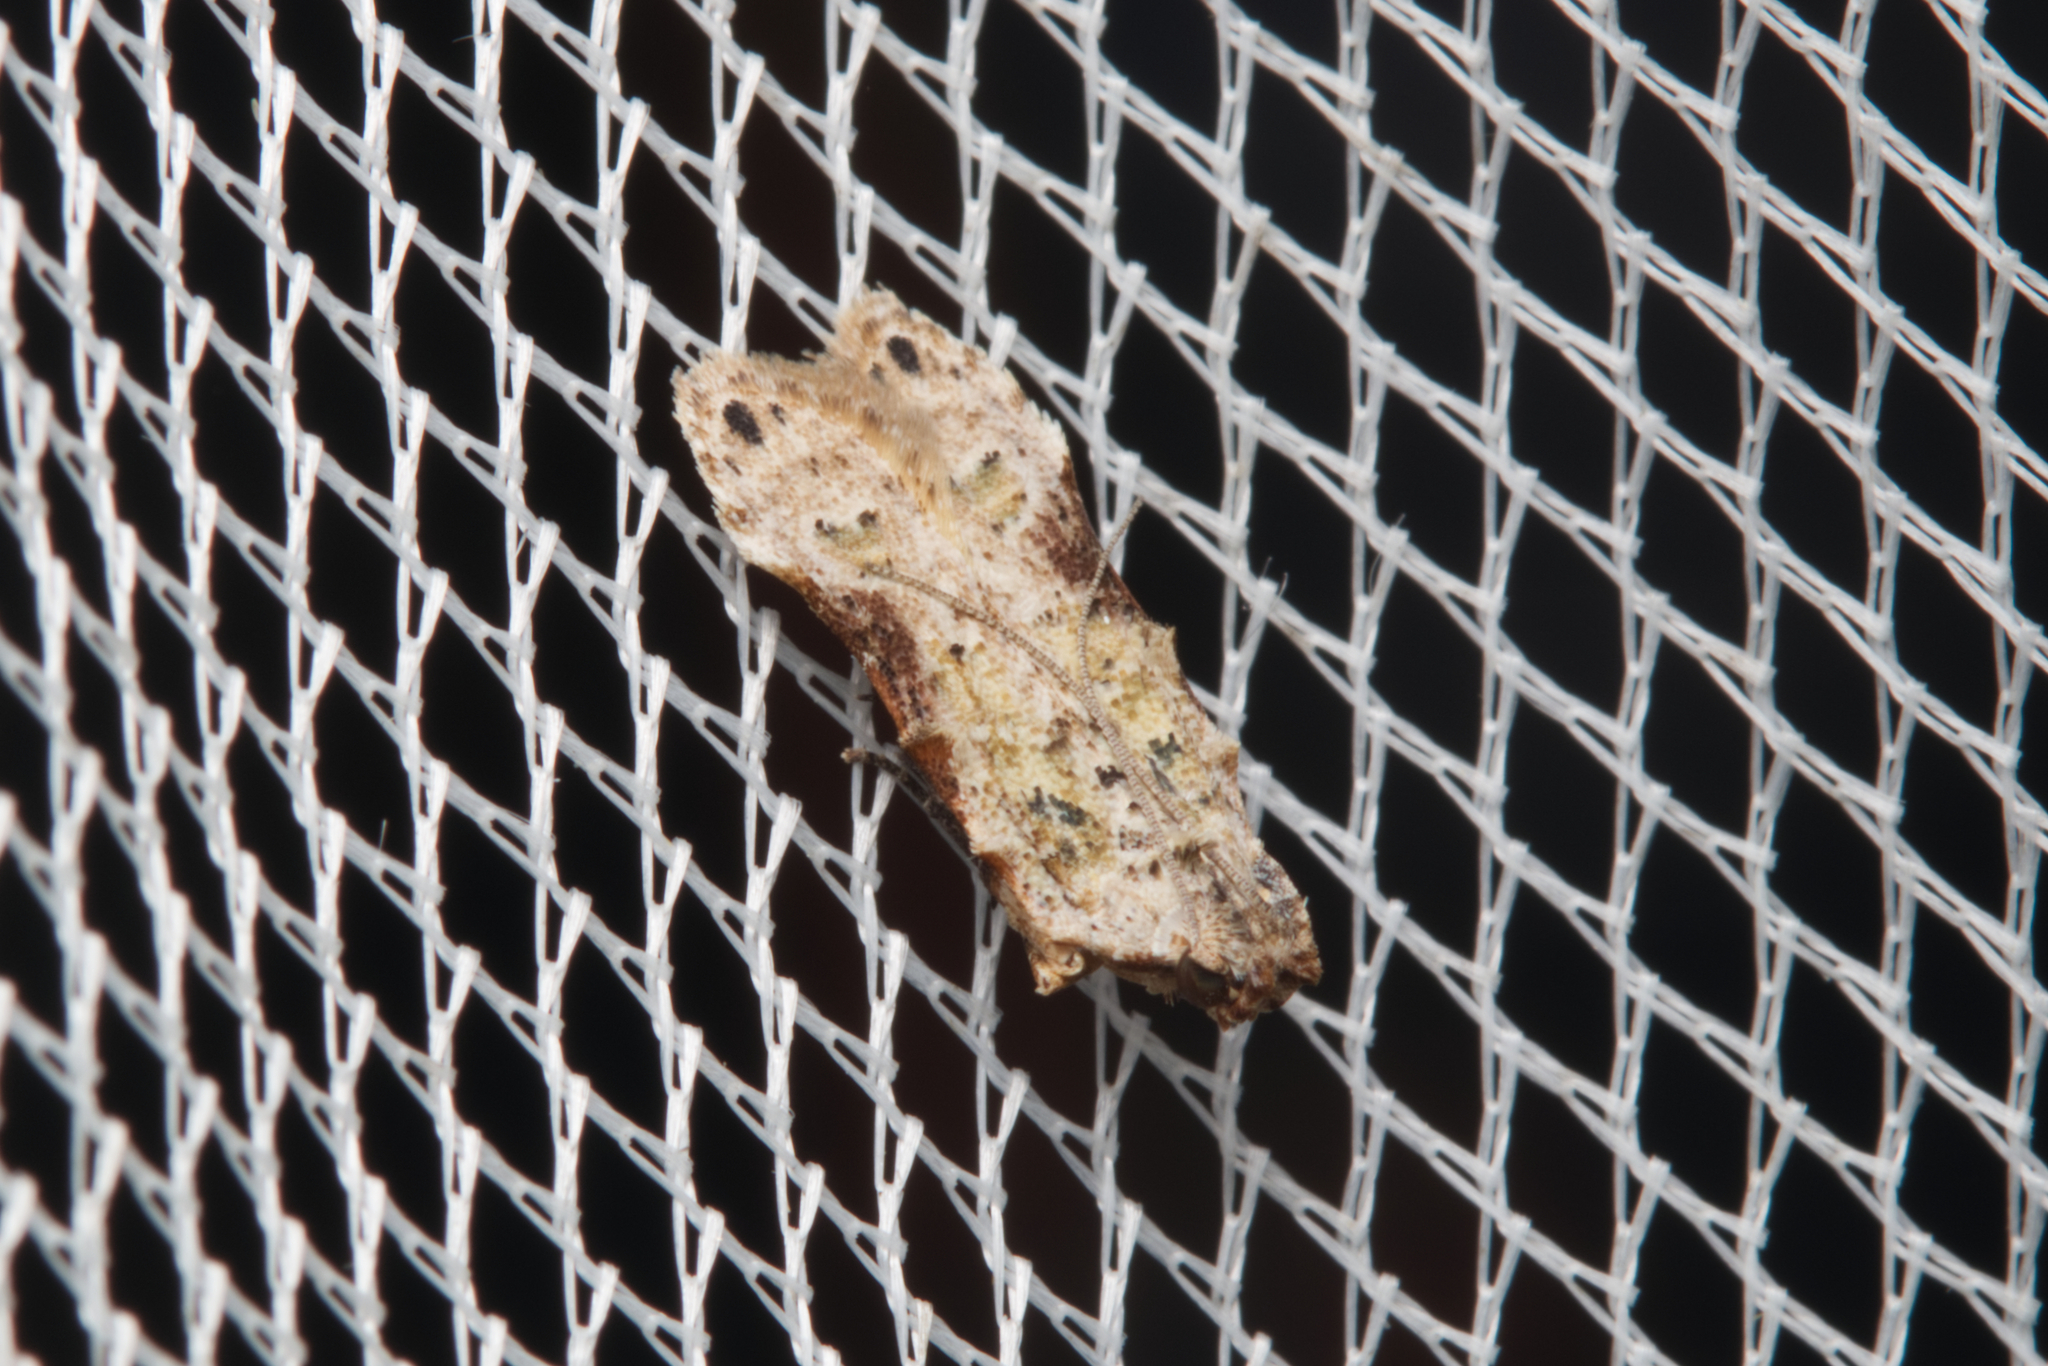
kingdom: Animalia
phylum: Arthropoda
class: Insecta
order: Lepidoptera
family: Gelechiidae
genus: Tituacia
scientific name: Tituacia deviella
